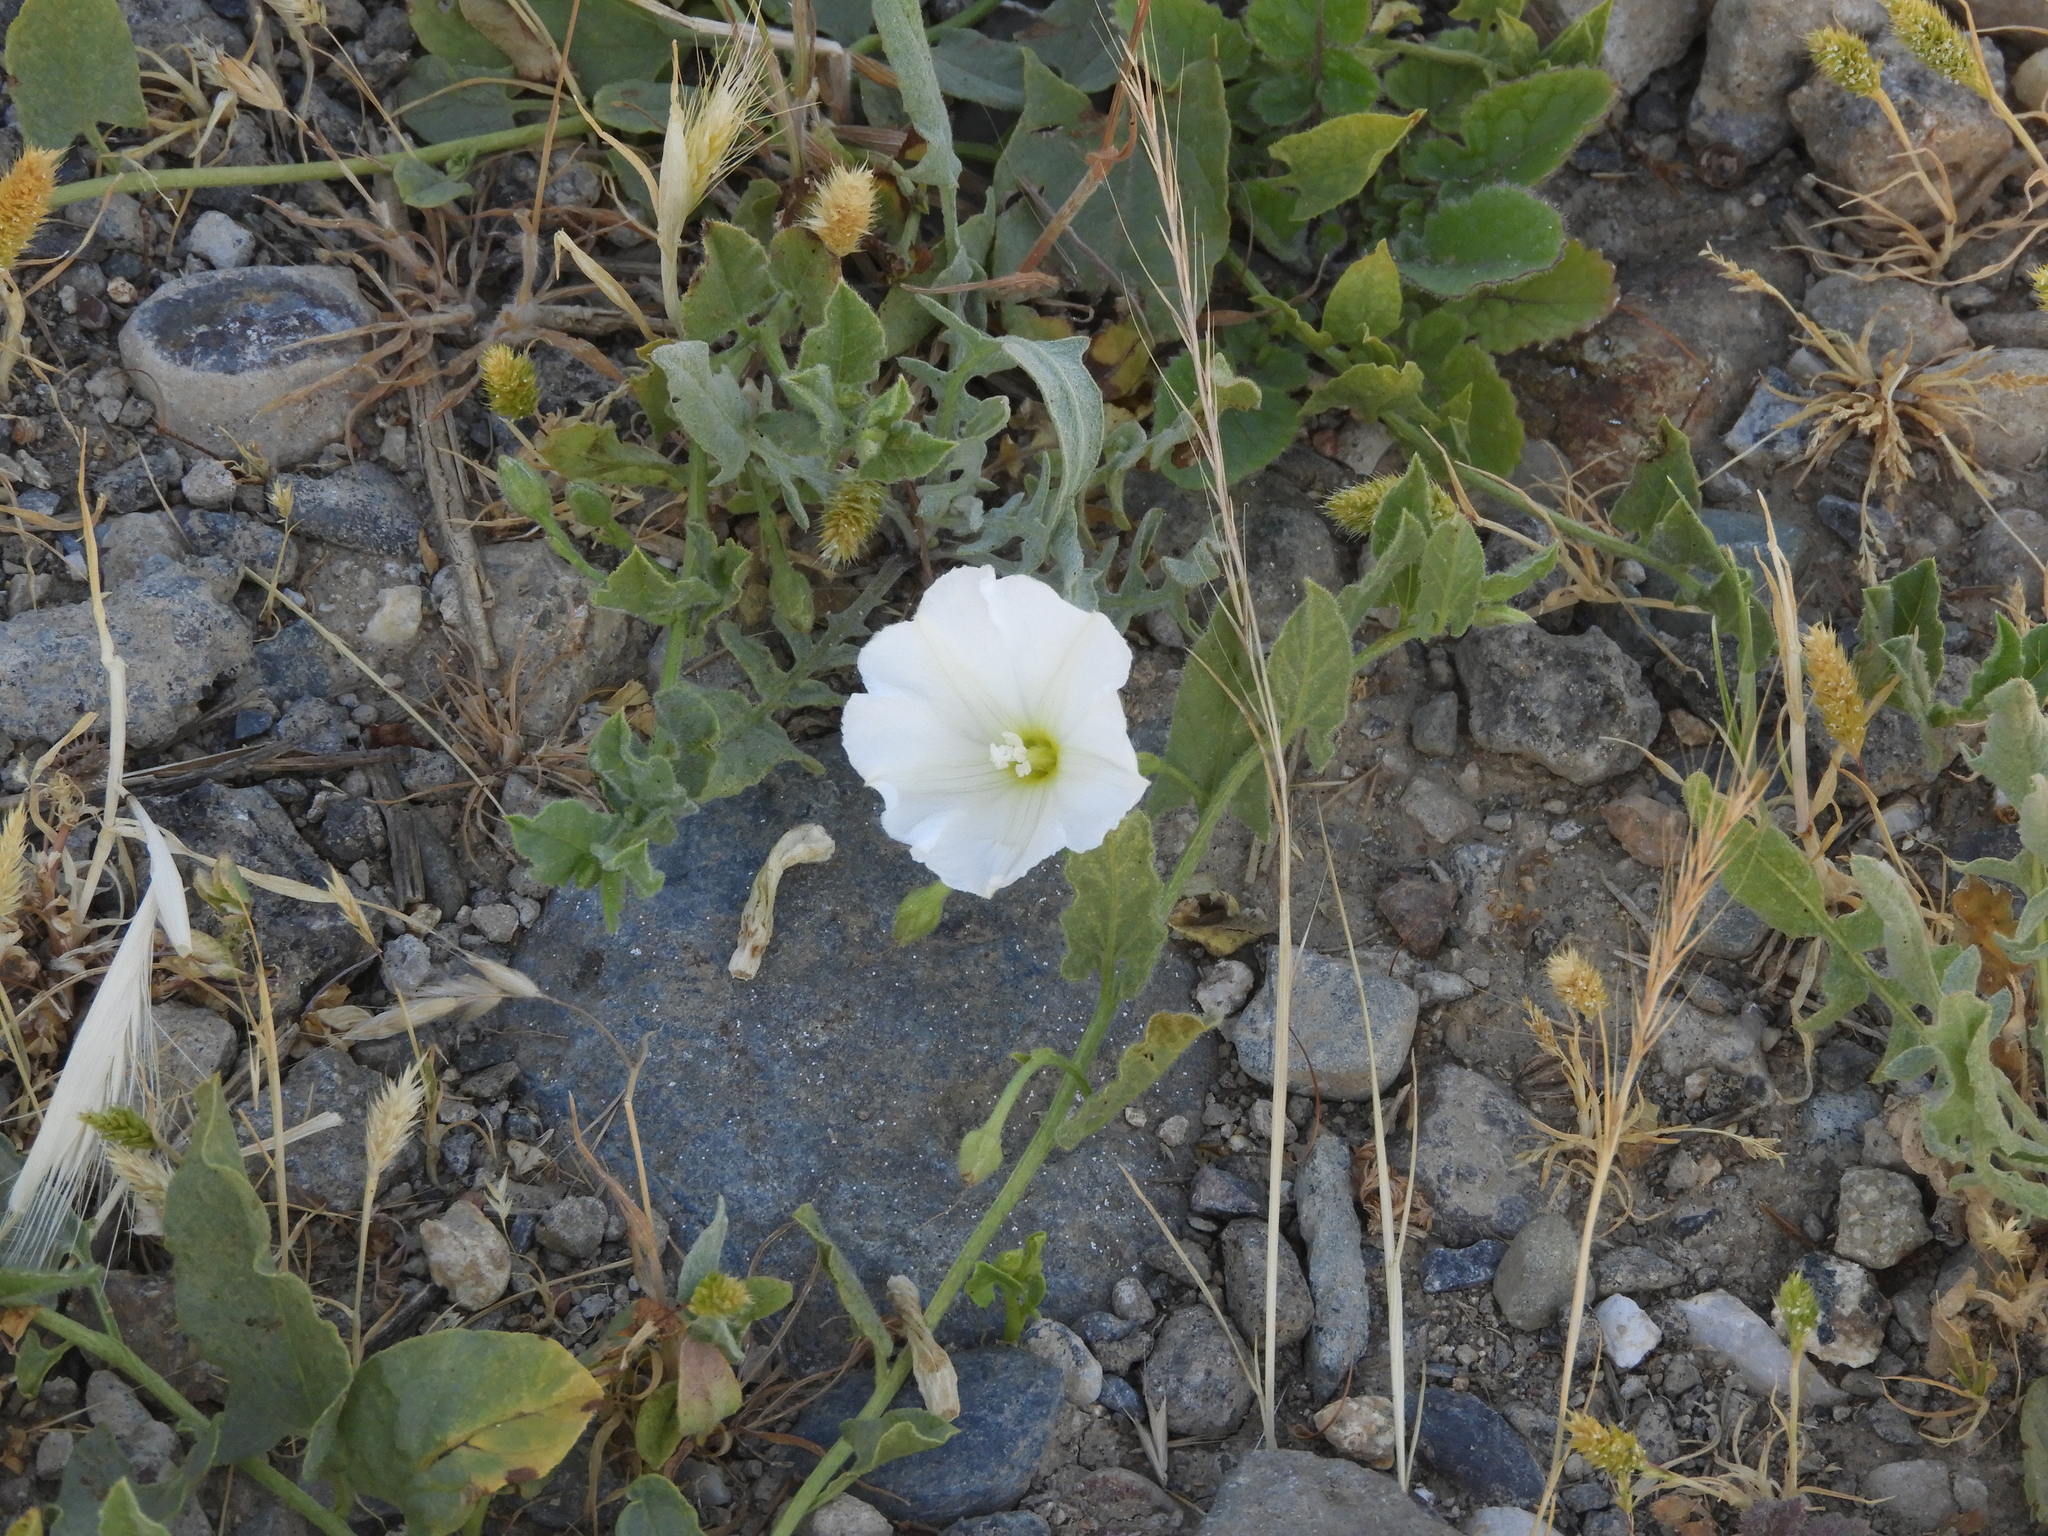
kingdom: Plantae
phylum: Tracheophyta
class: Magnoliopsida
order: Solanales
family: Convolvulaceae
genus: Convolvulus
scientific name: Convolvulus arvensis
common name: Field bindweed
